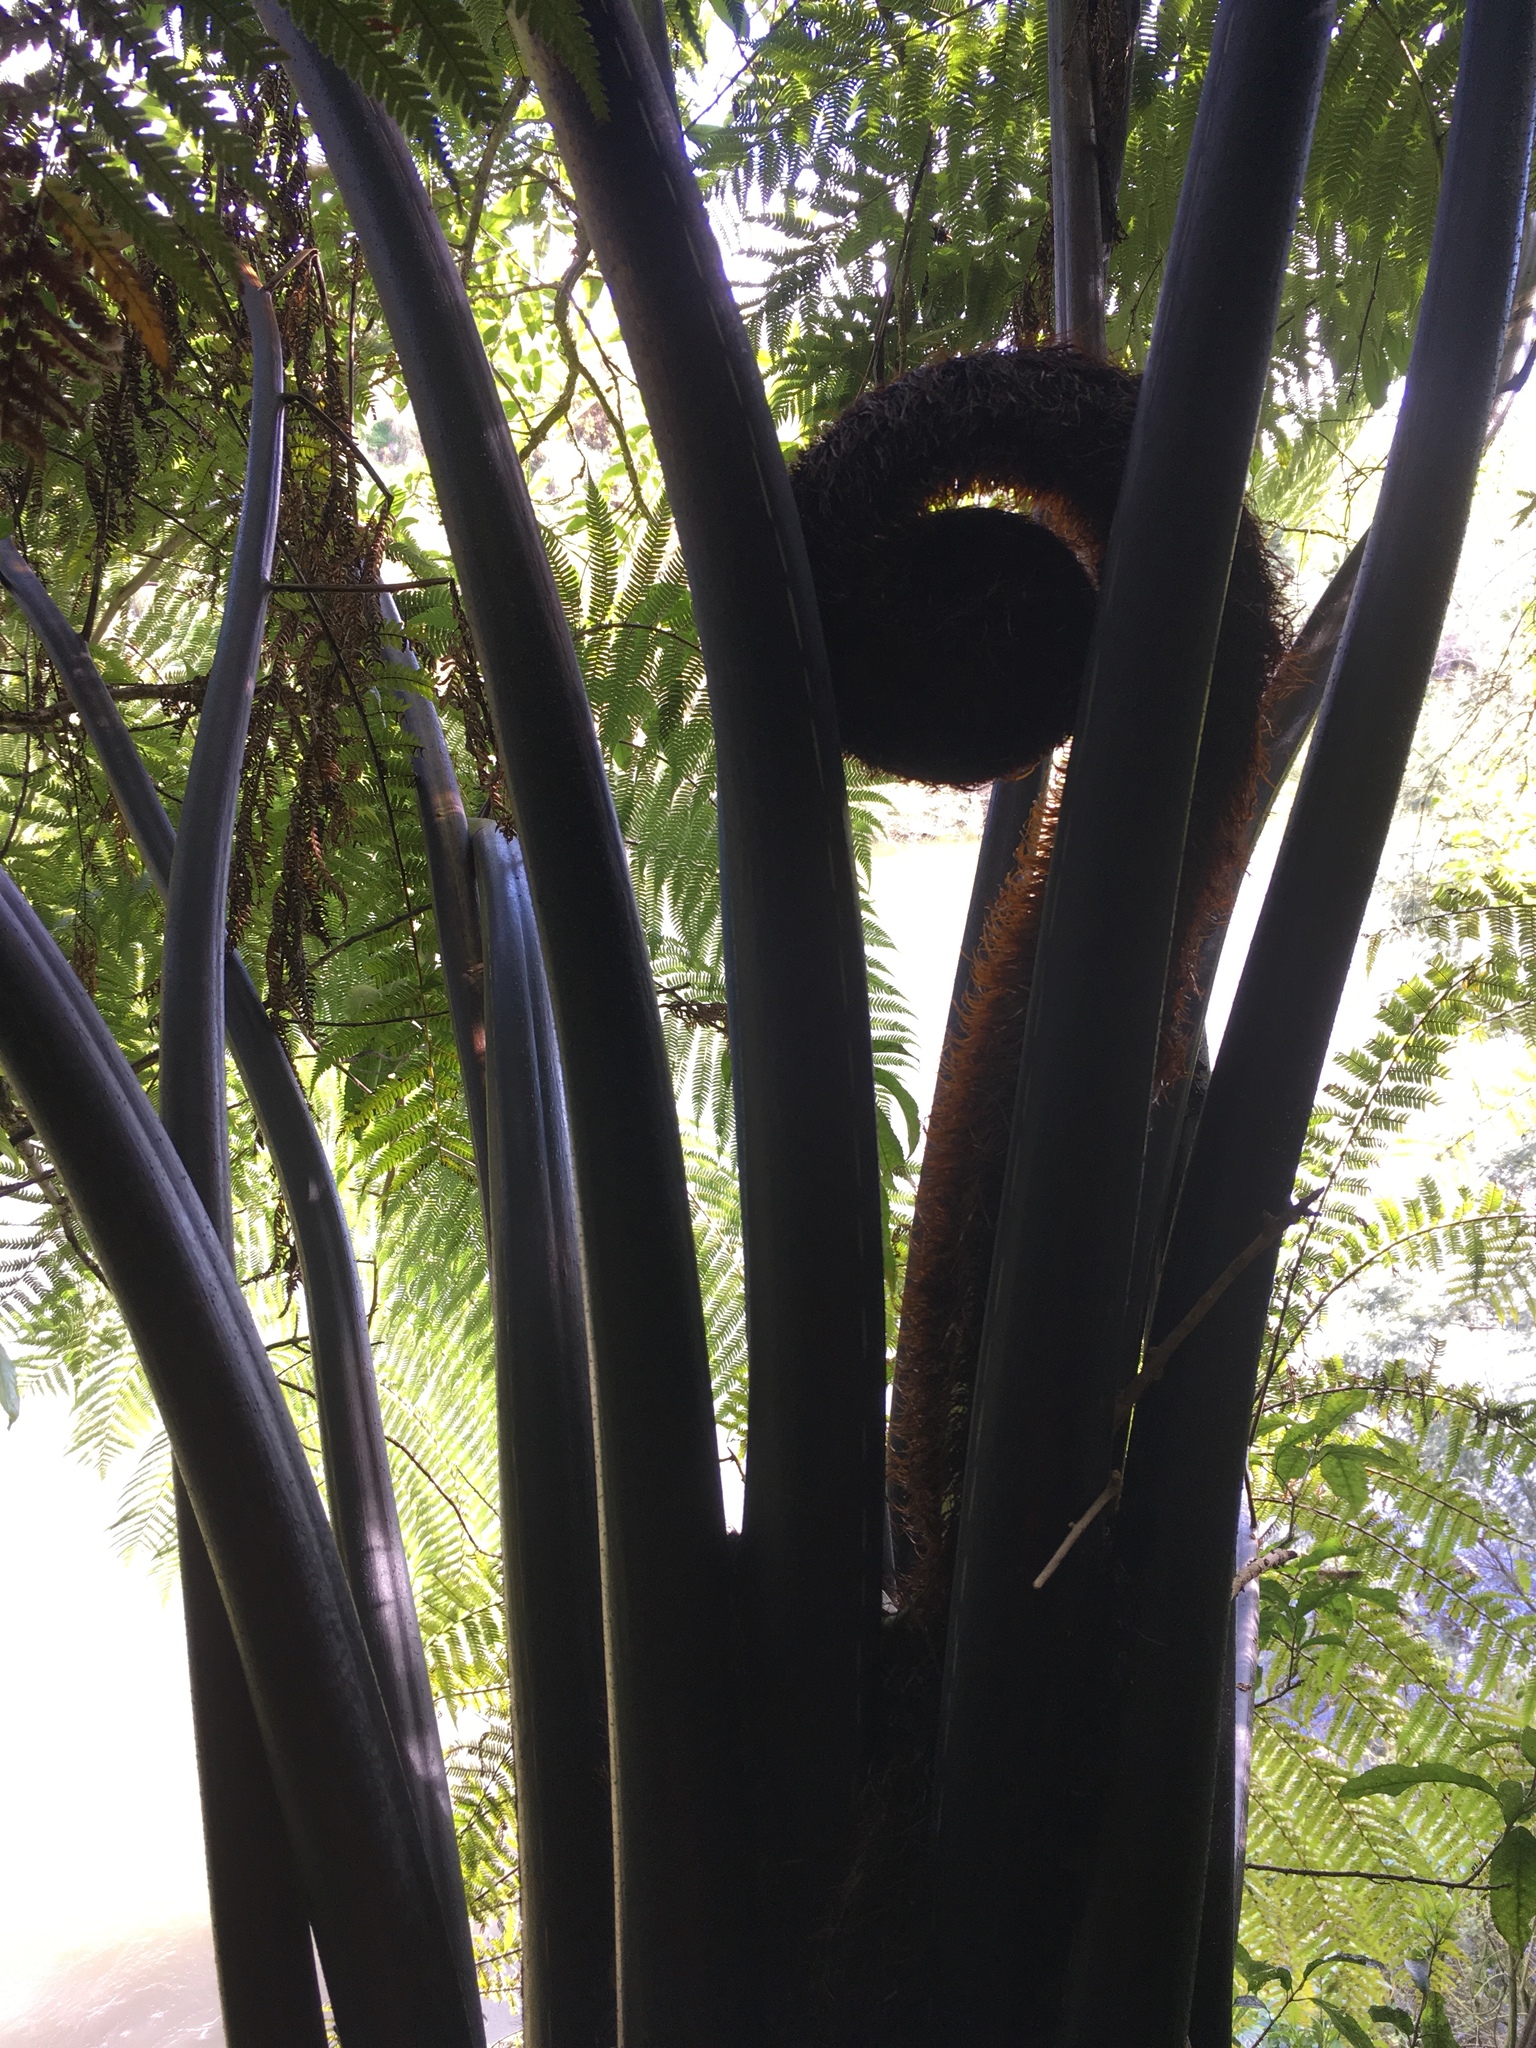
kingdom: Plantae
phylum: Tracheophyta
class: Polypodiopsida
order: Cyatheales
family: Cyatheaceae
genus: Sphaeropteris
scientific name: Sphaeropteris medullaris
